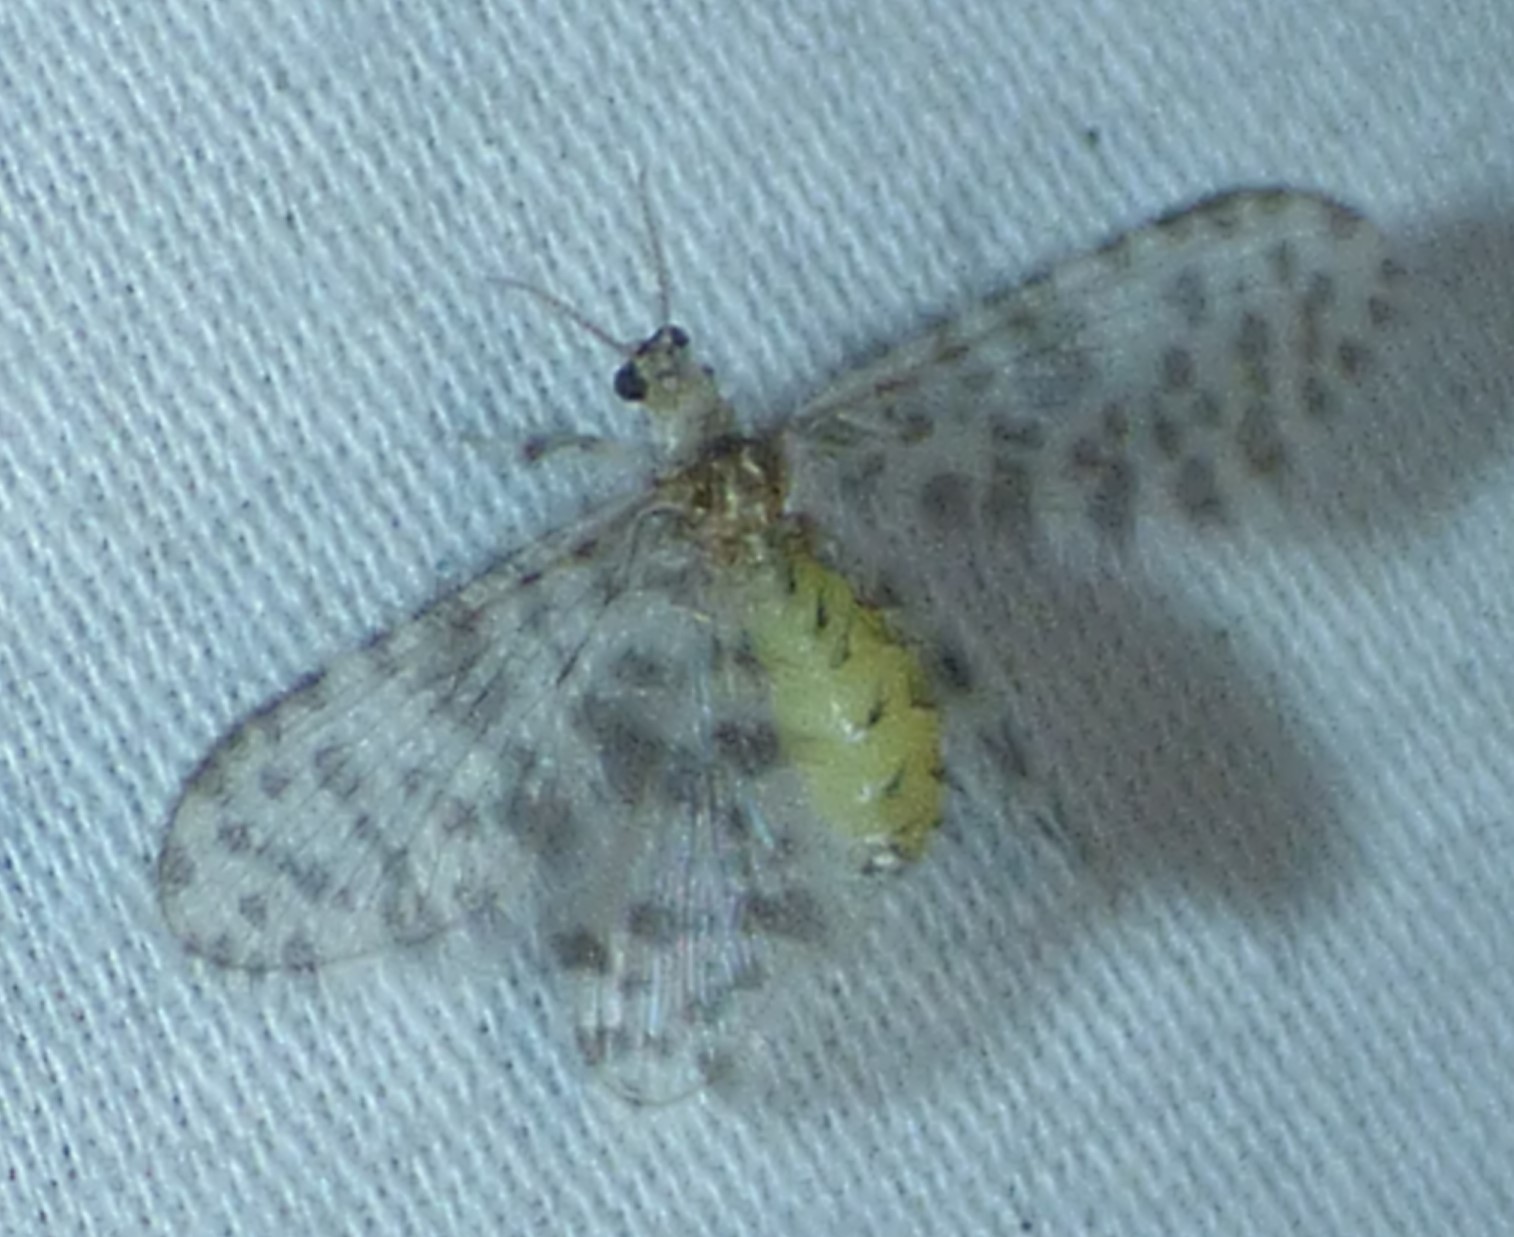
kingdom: Animalia
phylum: Arthropoda
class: Insecta
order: Neuroptera
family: Dilaridae
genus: Nallachius
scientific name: Nallachius americanus
